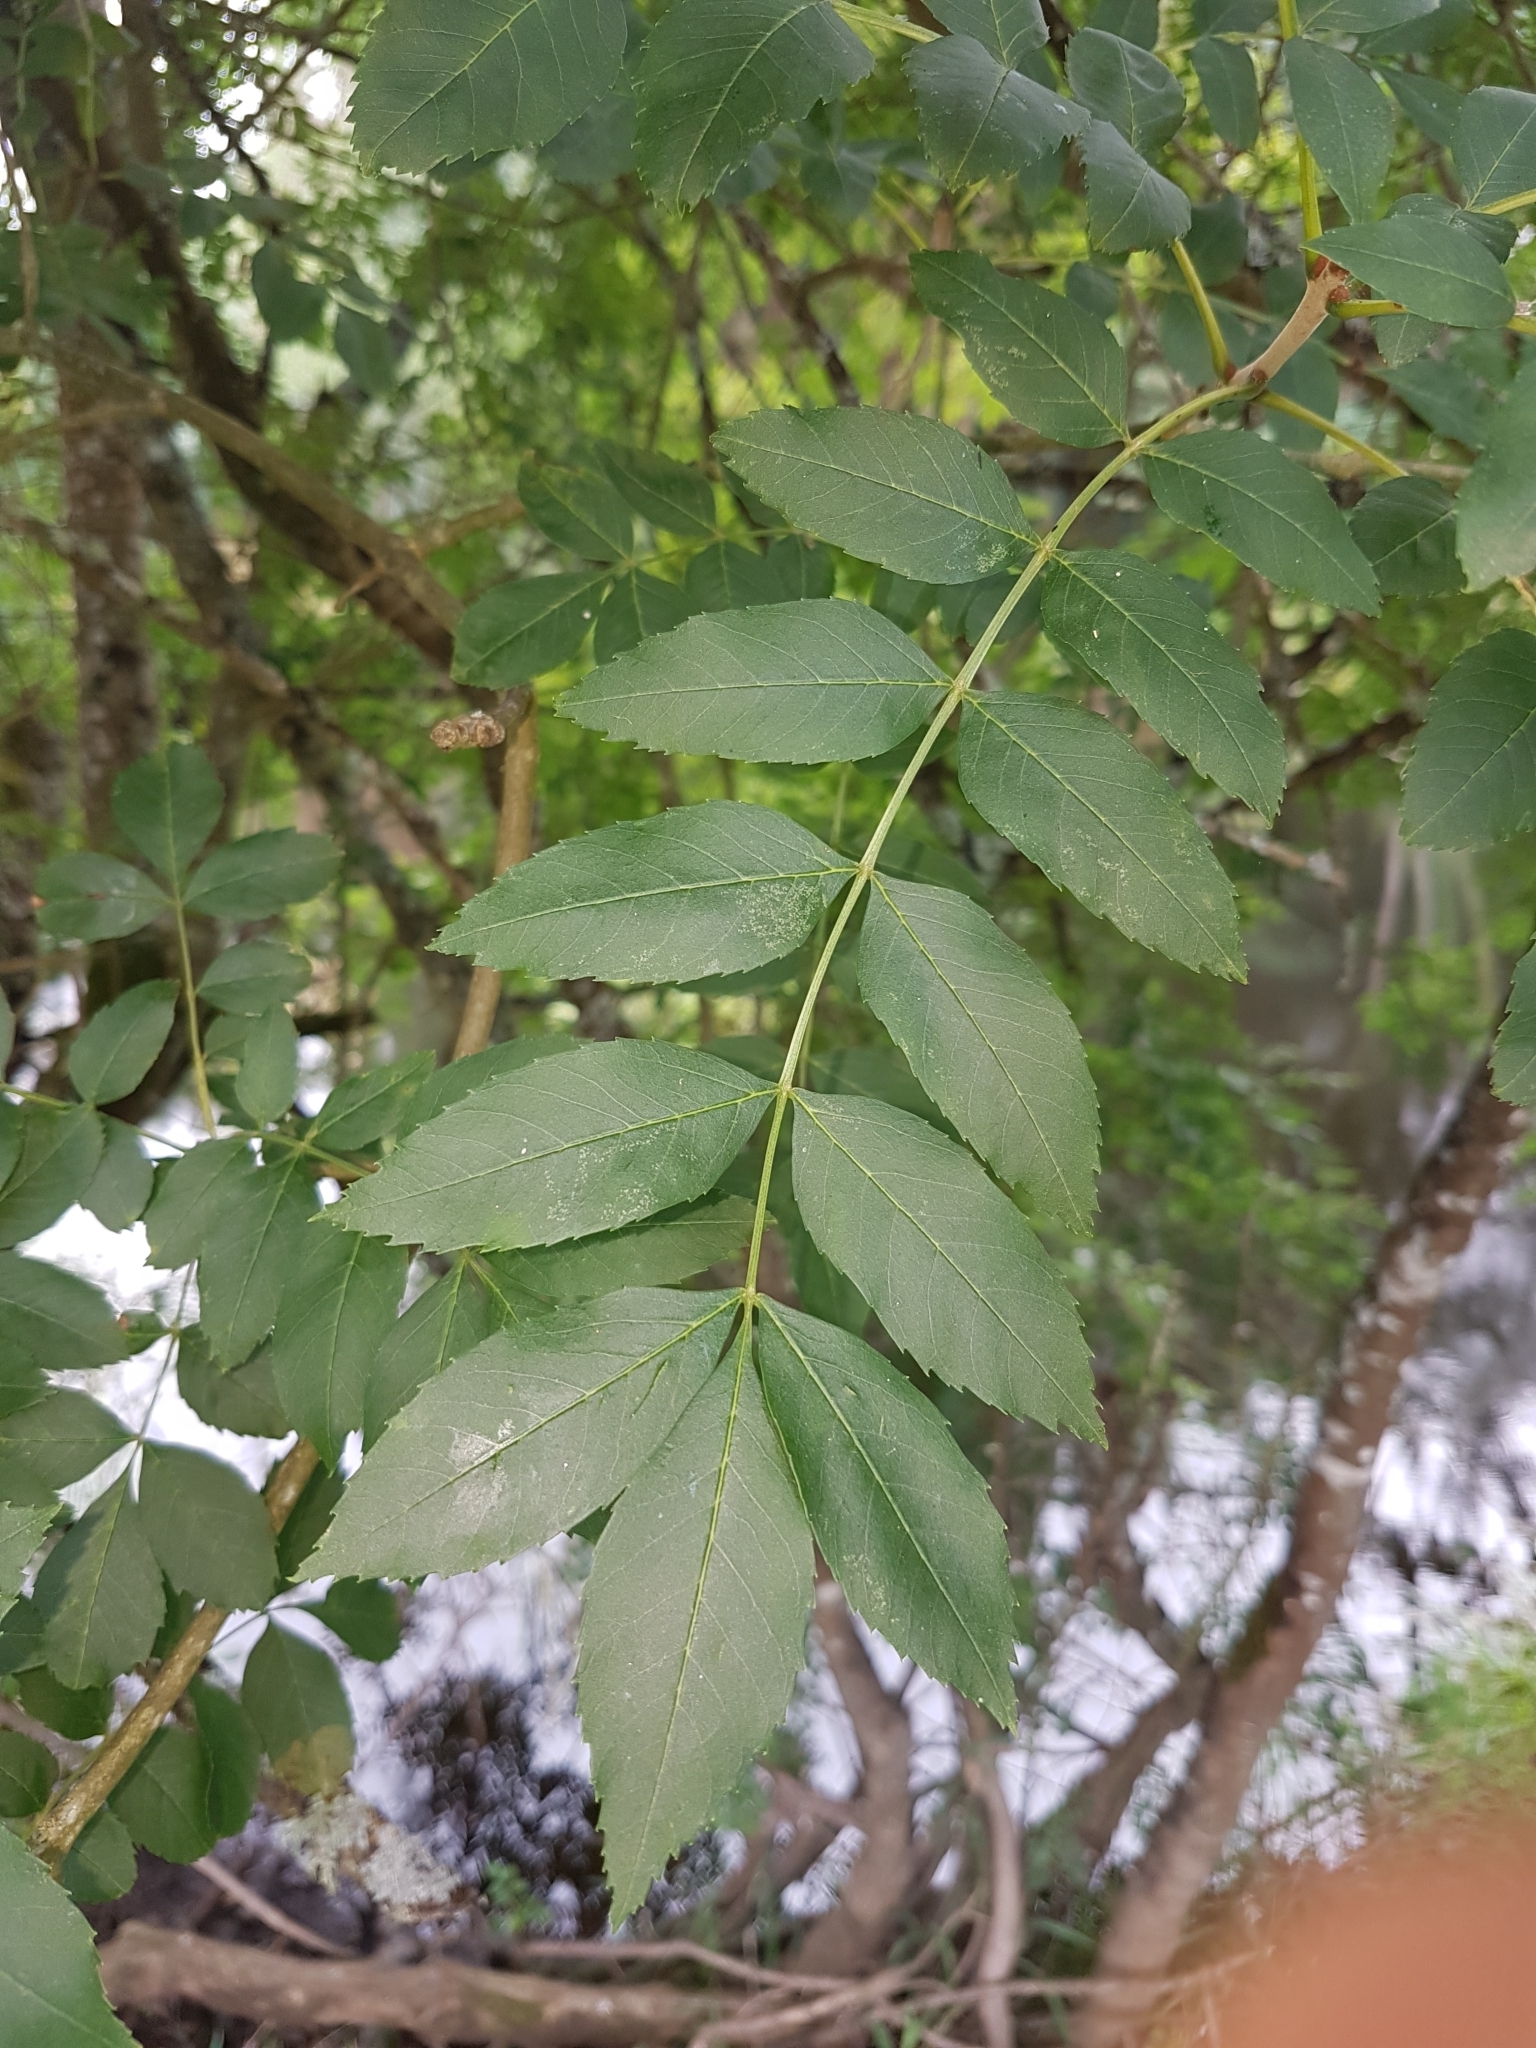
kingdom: Plantae
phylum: Tracheophyta
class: Magnoliopsida
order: Lamiales
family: Oleaceae
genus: Fraxinus
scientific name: Fraxinus excelsior
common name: European ash
